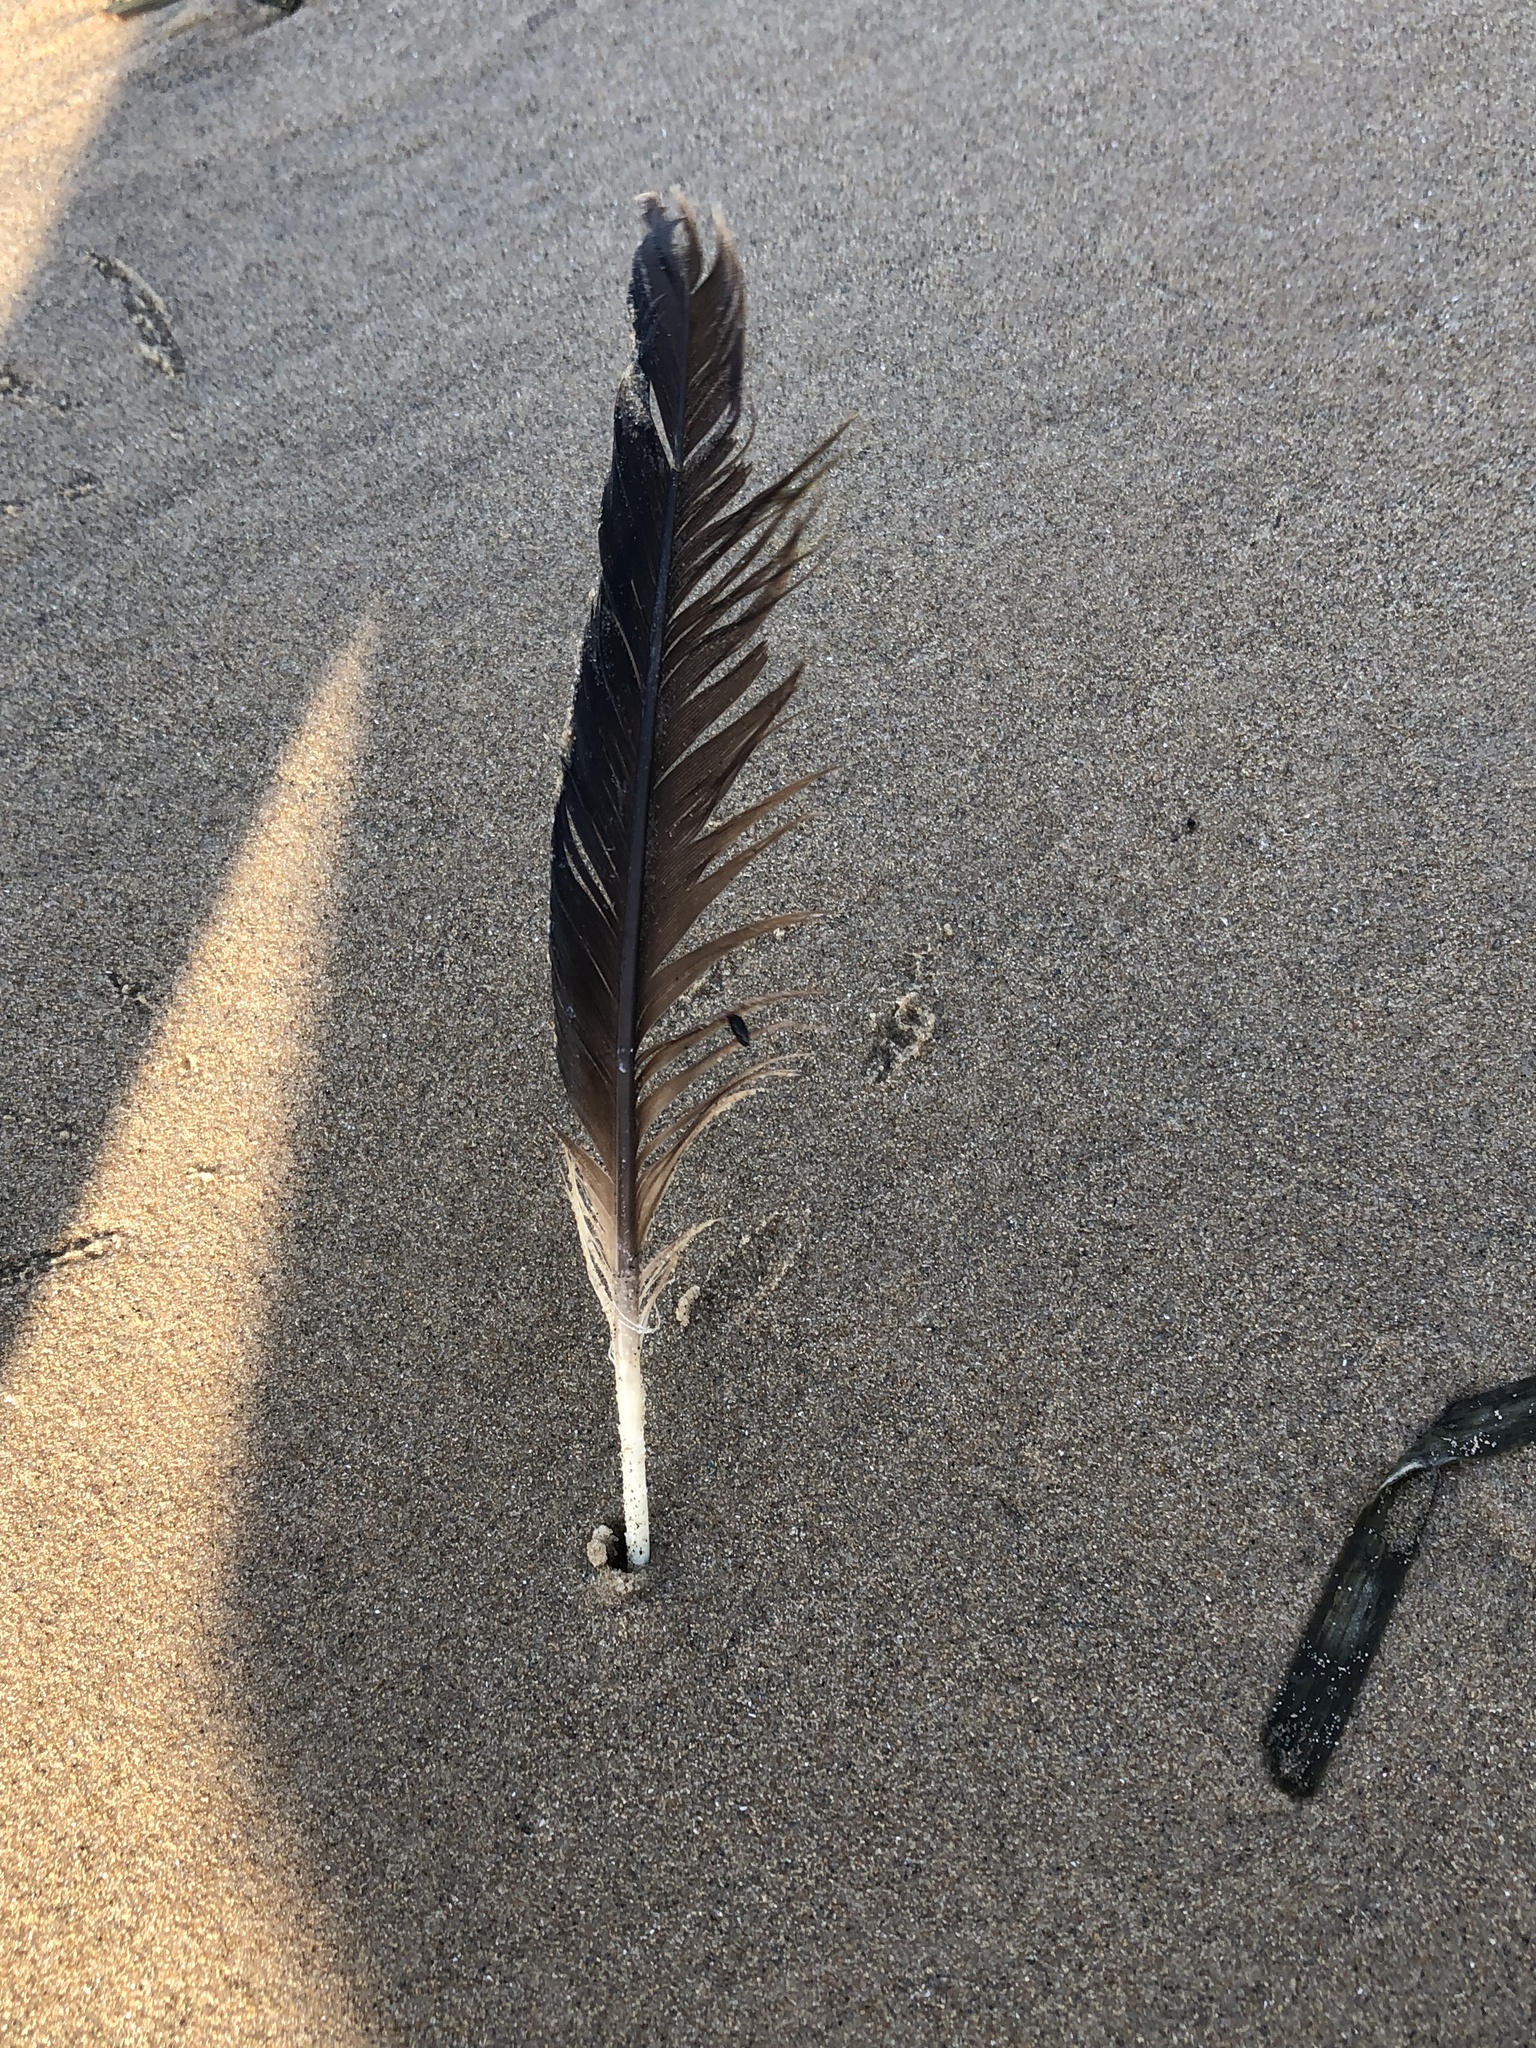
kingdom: Animalia
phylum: Chordata
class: Aves
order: Anseriformes
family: Anatidae
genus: Branta
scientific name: Branta canadensis
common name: Canada goose
